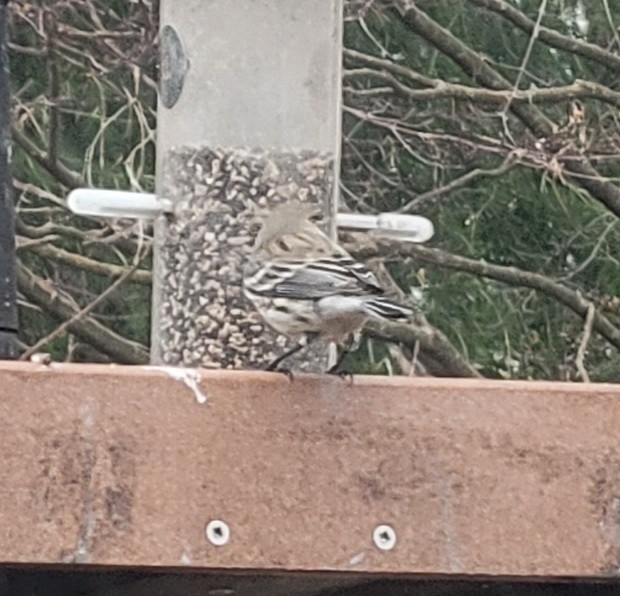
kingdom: Animalia
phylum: Chordata
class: Aves
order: Passeriformes
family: Parulidae
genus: Setophaga
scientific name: Setophaga coronata
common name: Myrtle warbler
